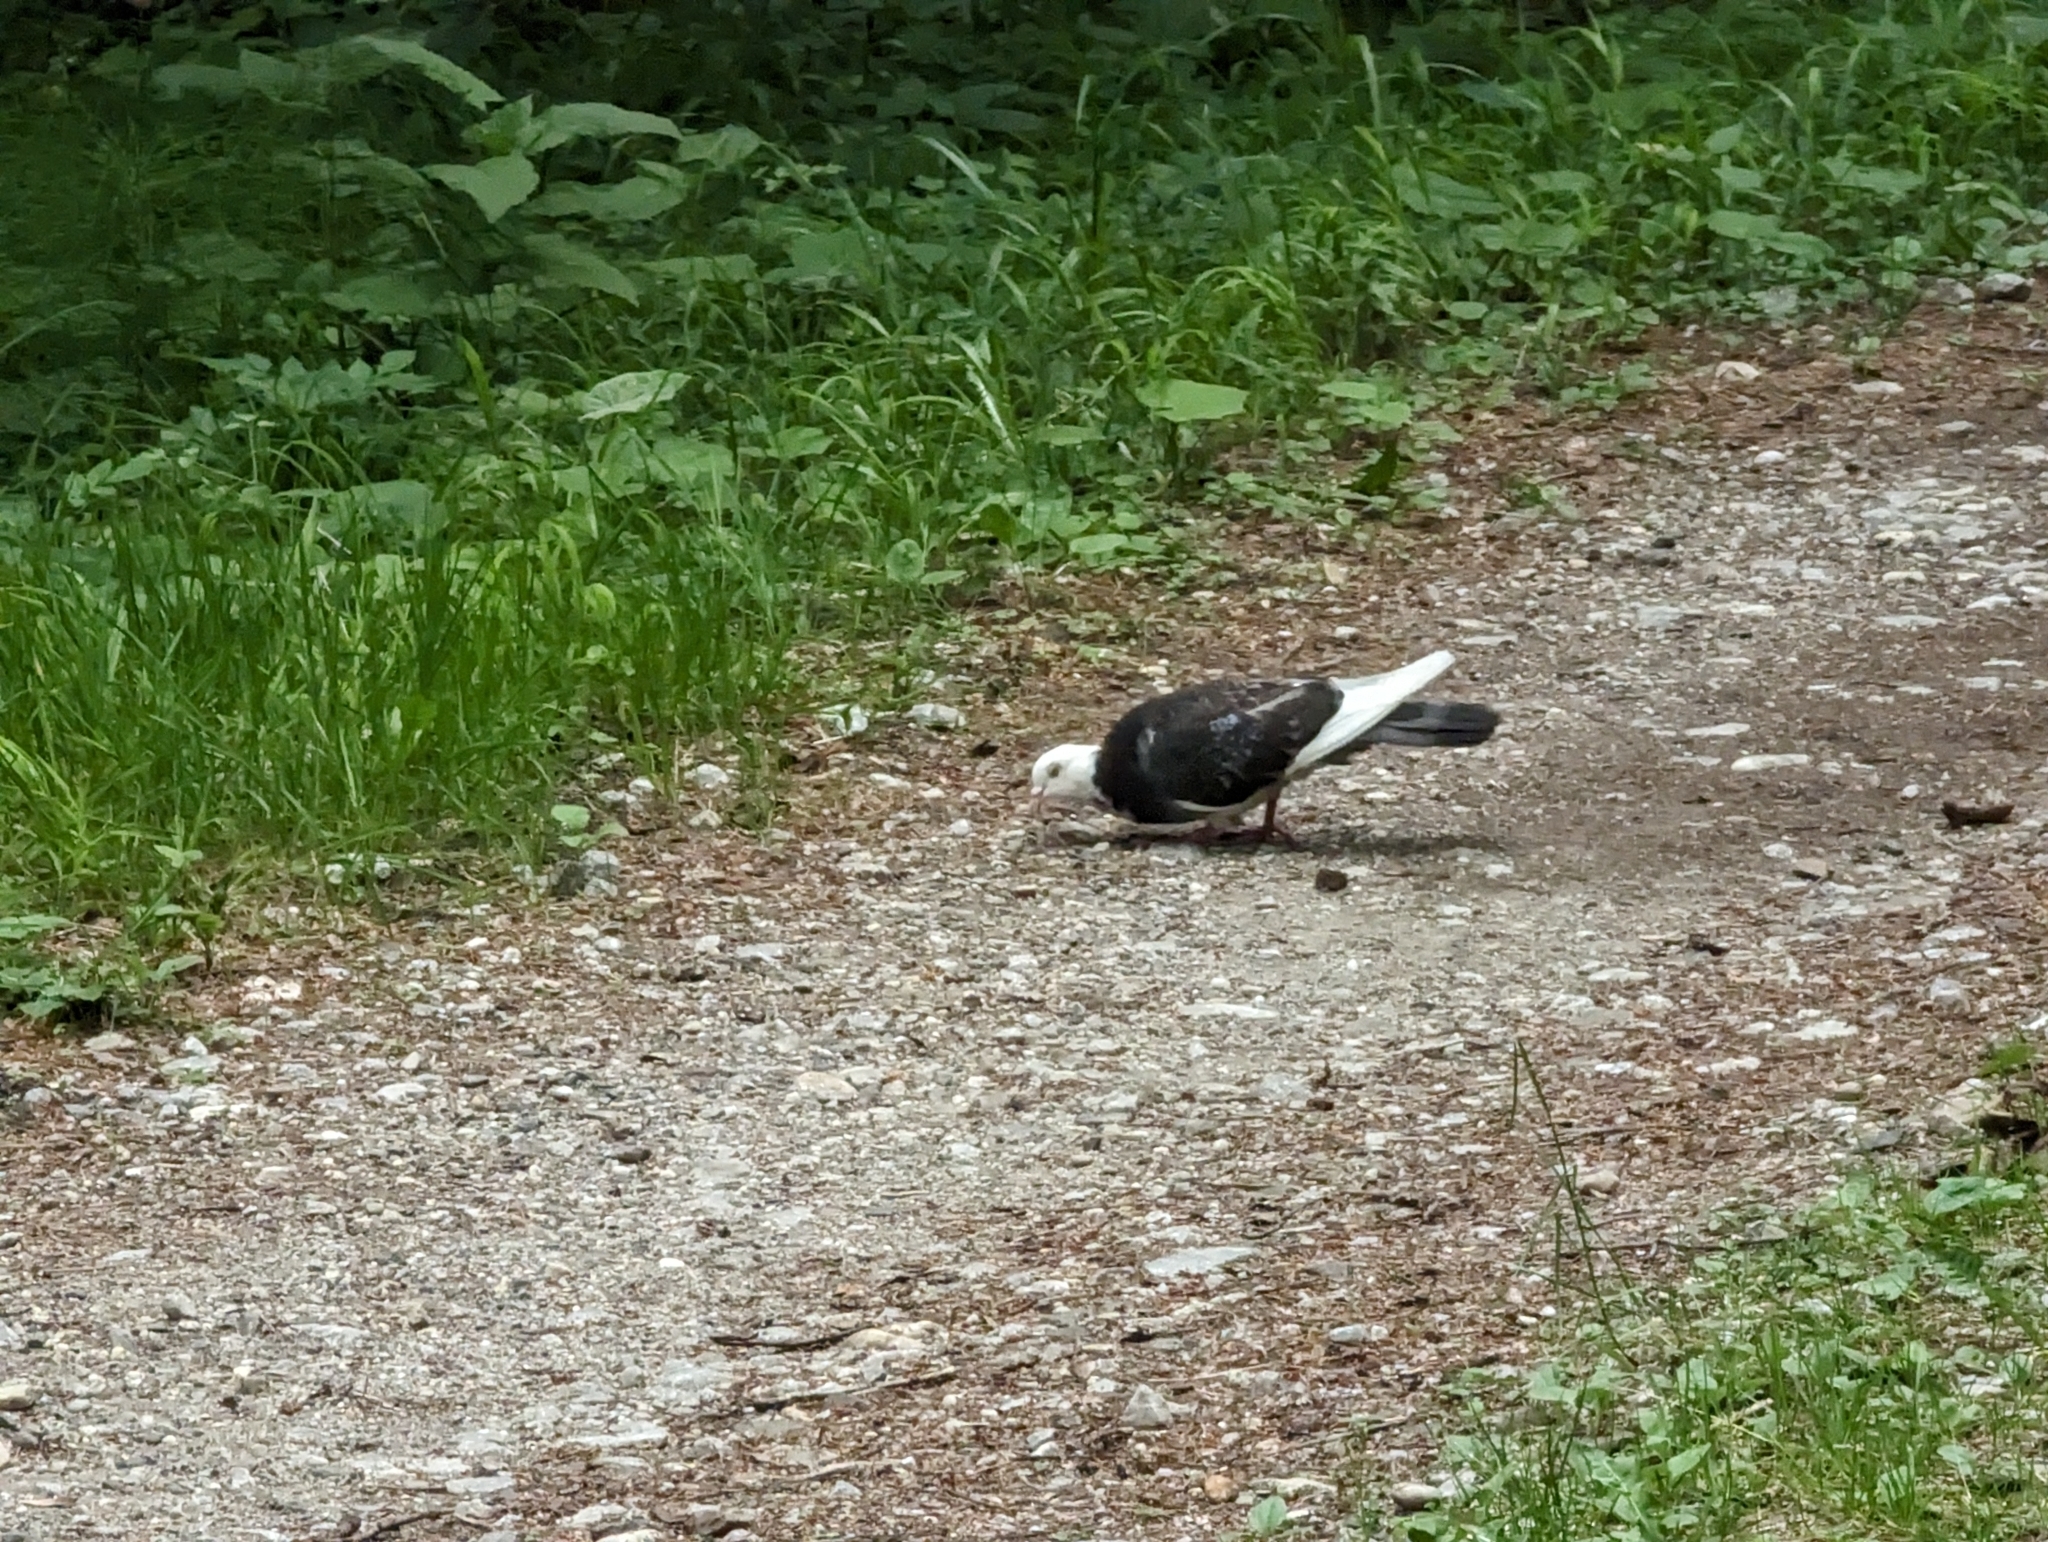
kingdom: Animalia
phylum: Chordata
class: Aves
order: Columbiformes
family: Columbidae
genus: Columba
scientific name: Columba livia
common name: Rock pigeon
